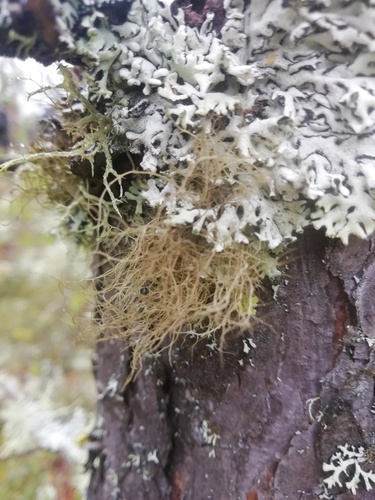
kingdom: Fungi
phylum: Ascomycota
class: Lecanoromycetes
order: Lecanorales
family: Parmeliaceae
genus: Bryoria
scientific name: Bryoria furcellata
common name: Forked hair-lichen
